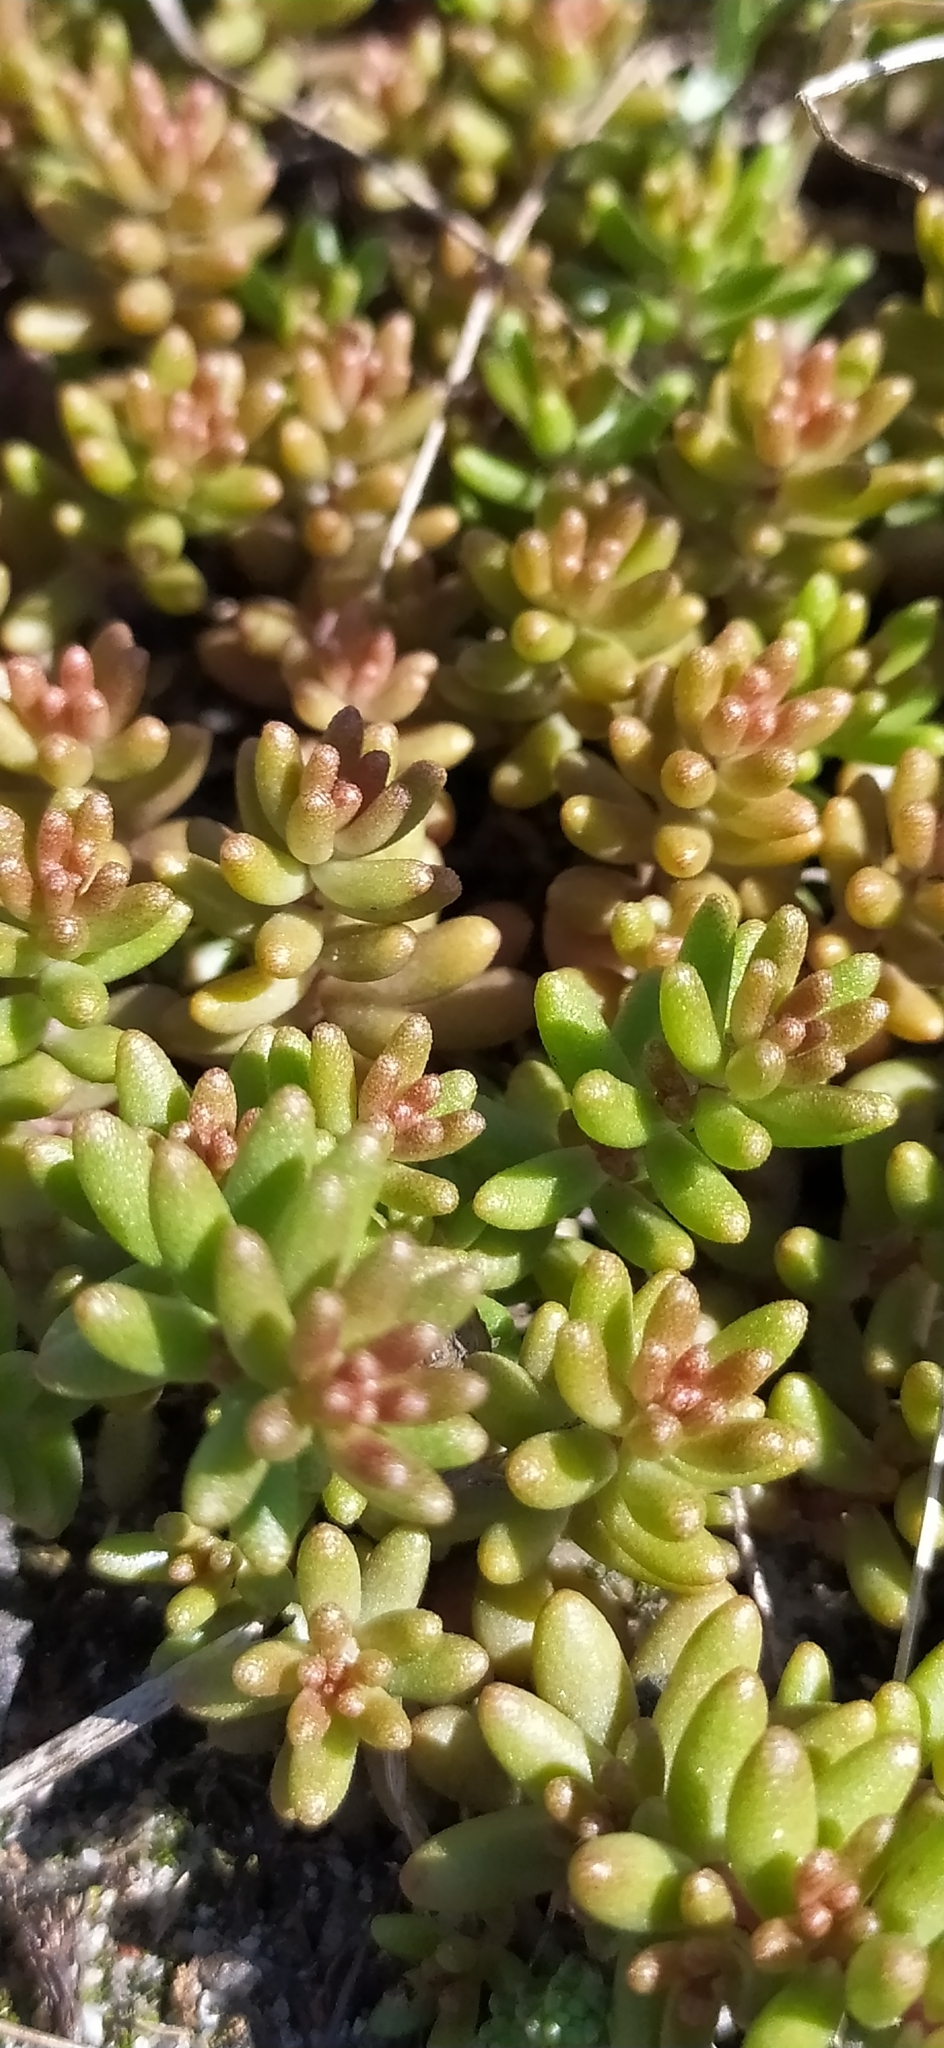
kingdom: Plantae
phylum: Tracheophyta
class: Magnoliopsida
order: Saxifragales
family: Crassulaceae
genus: Sedum
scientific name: Sedum album
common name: White stonecrop
